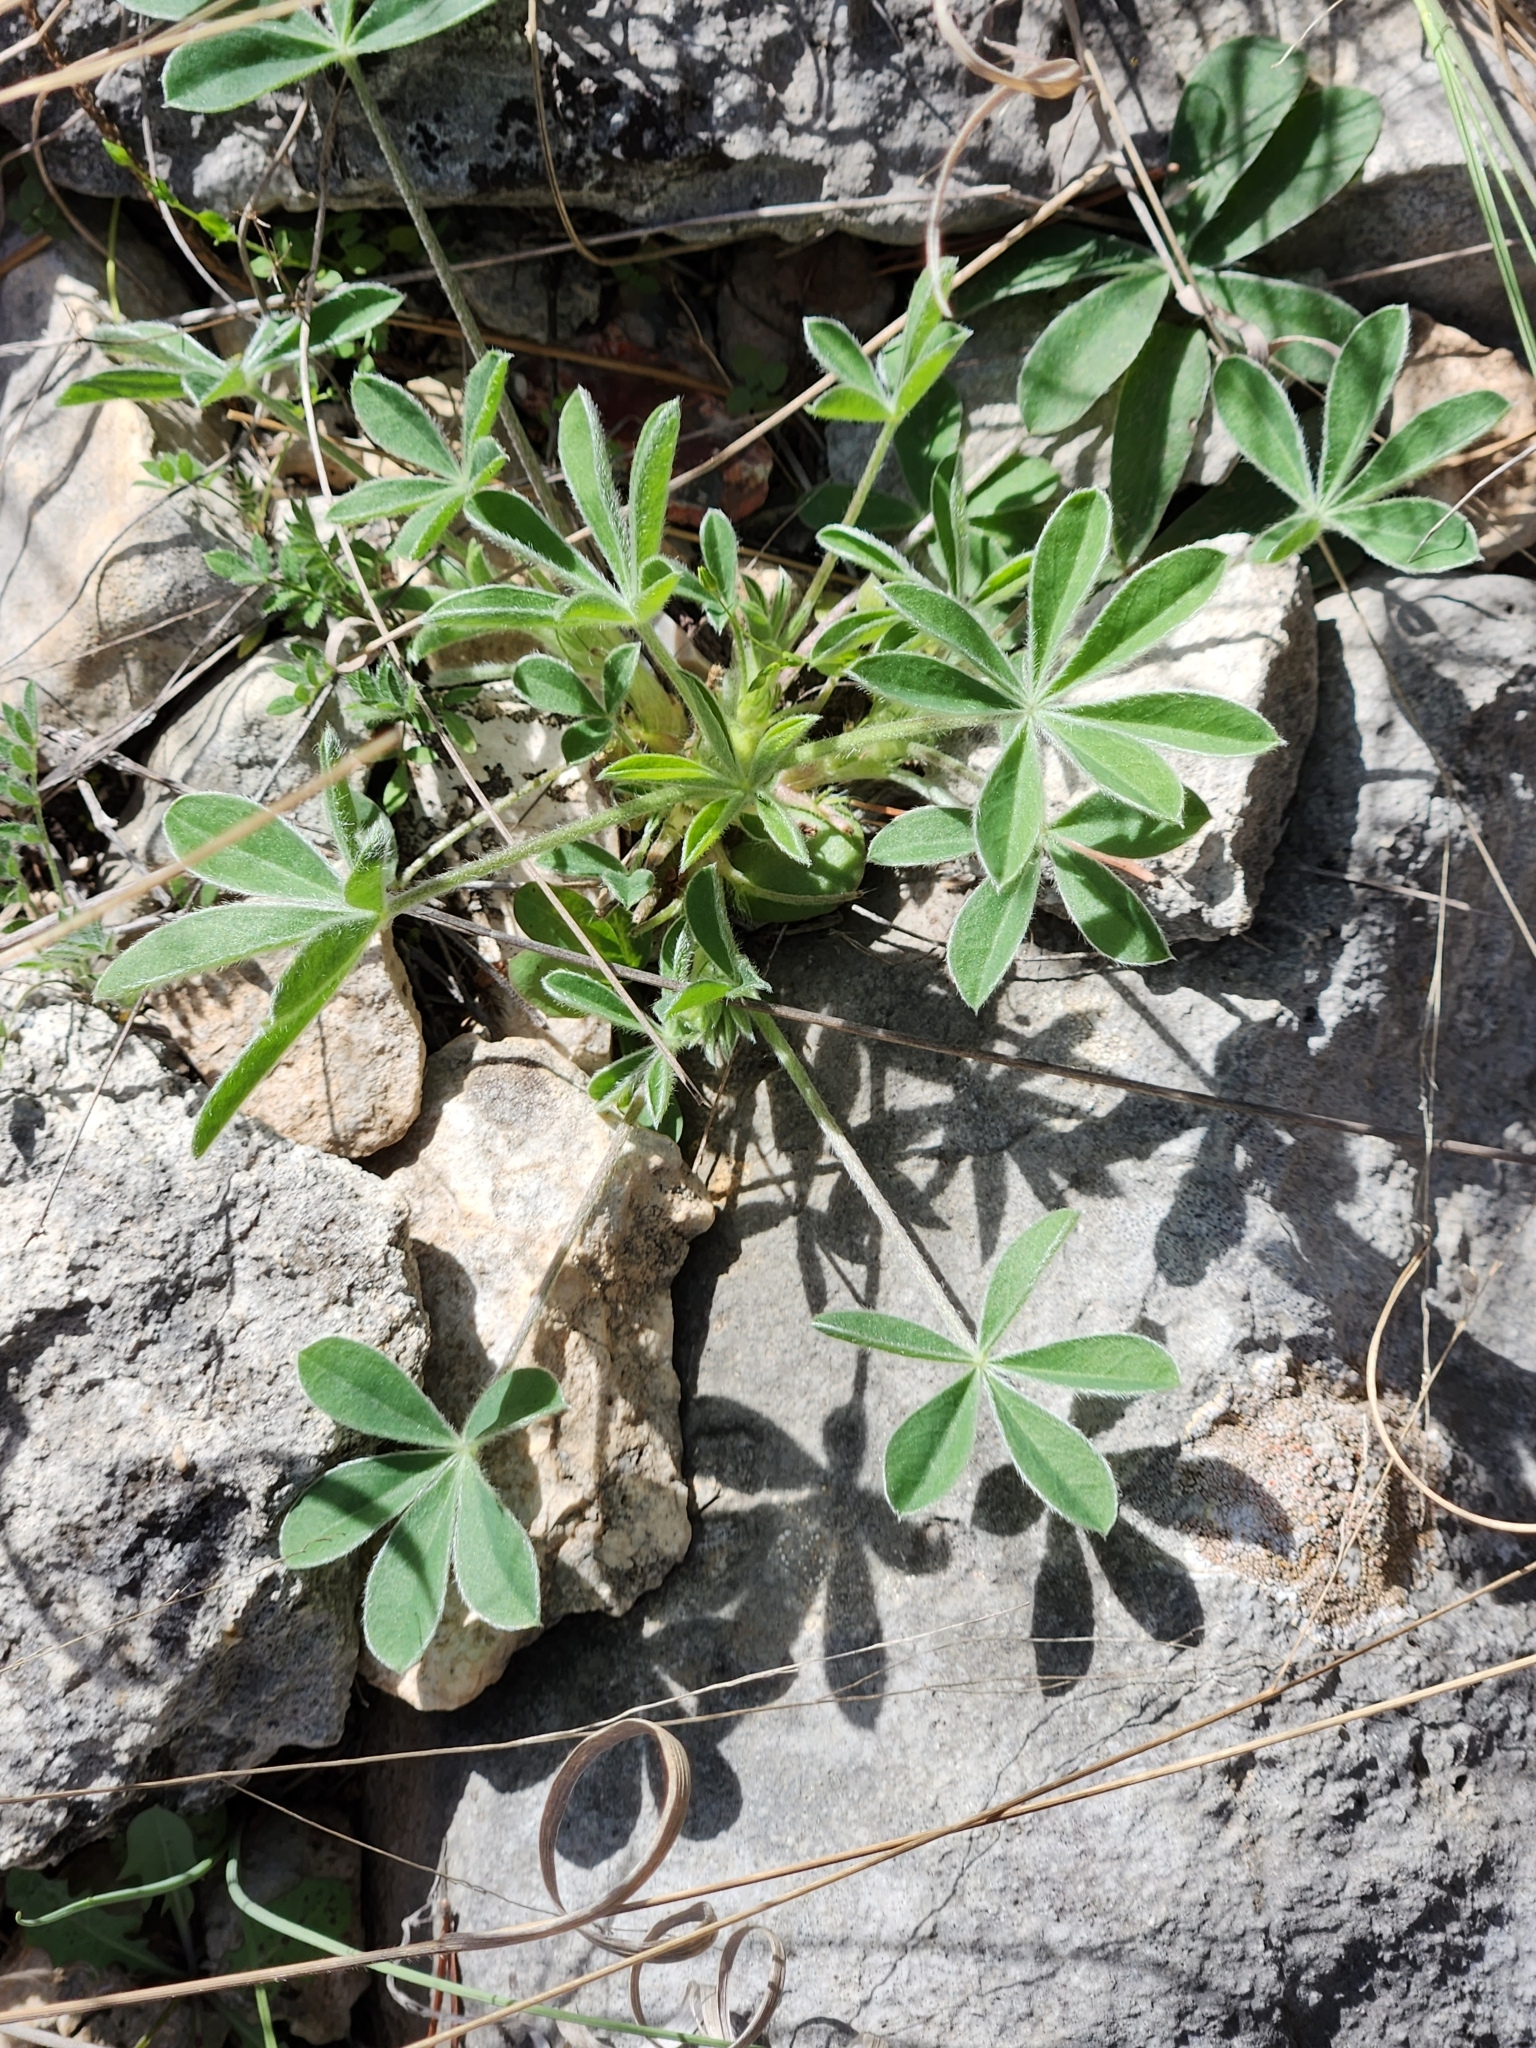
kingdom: Plantae
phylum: Tracheophyta
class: Magnoliopsida
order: Fabales
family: Fabaceae
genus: Lupinus
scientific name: Lupinus texensis
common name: Texas bluebonnet
